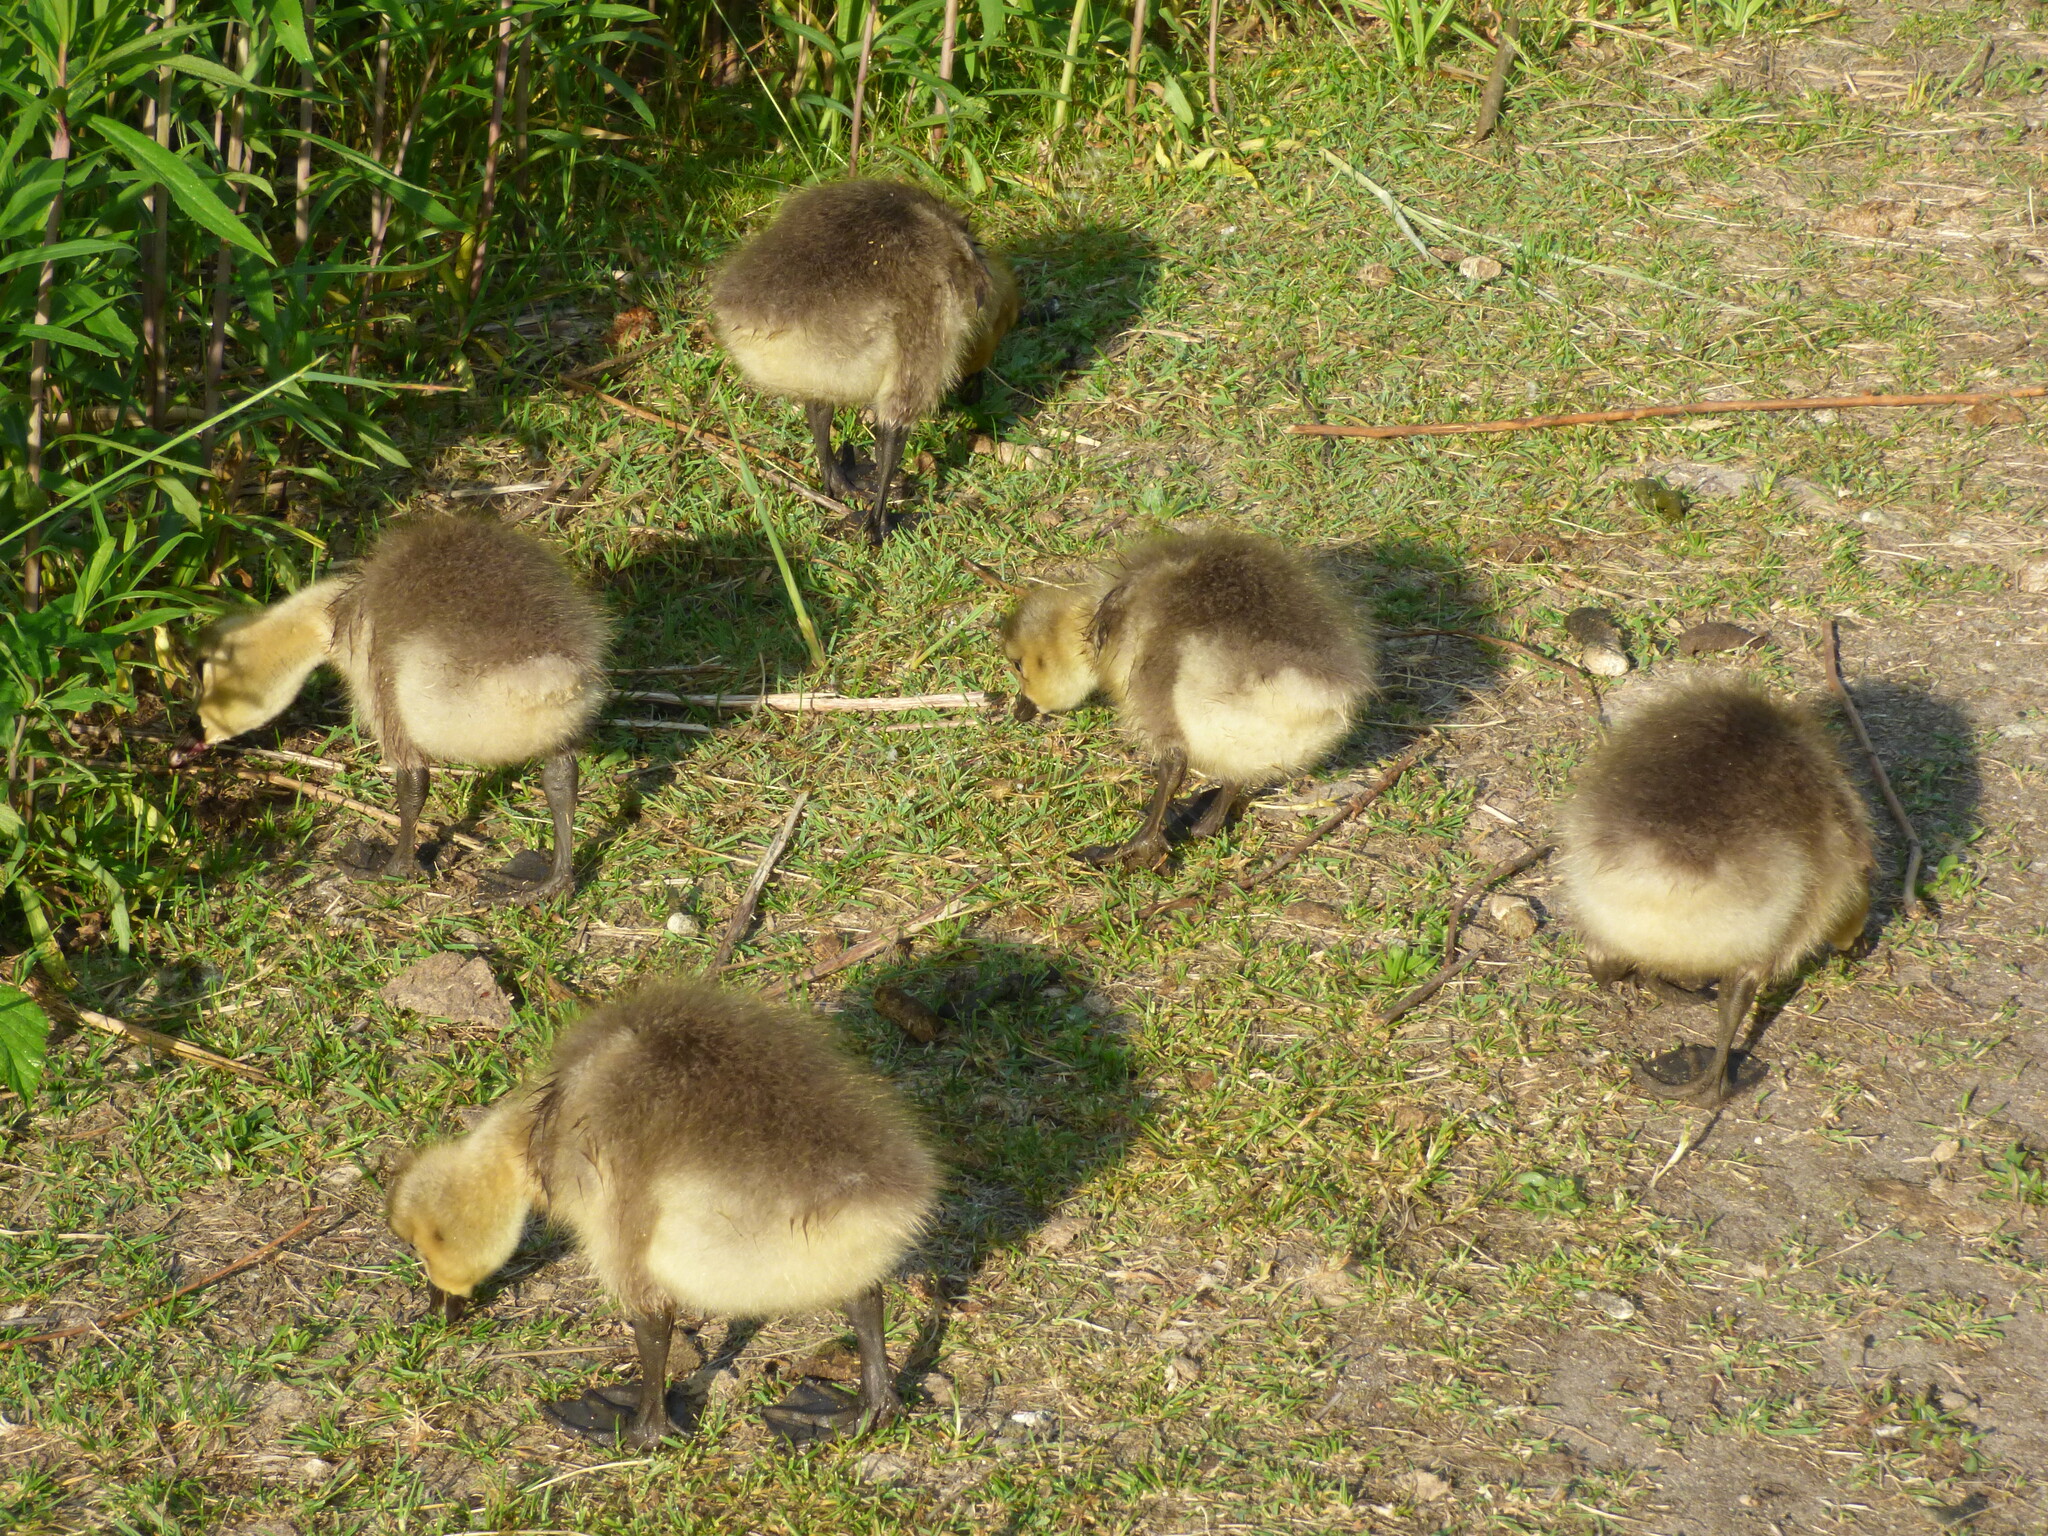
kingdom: Animalia
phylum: Chordata
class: Aves
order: Anseriformes
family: Anatidae
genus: Branta
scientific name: Branta canadensis
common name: Canada goose
